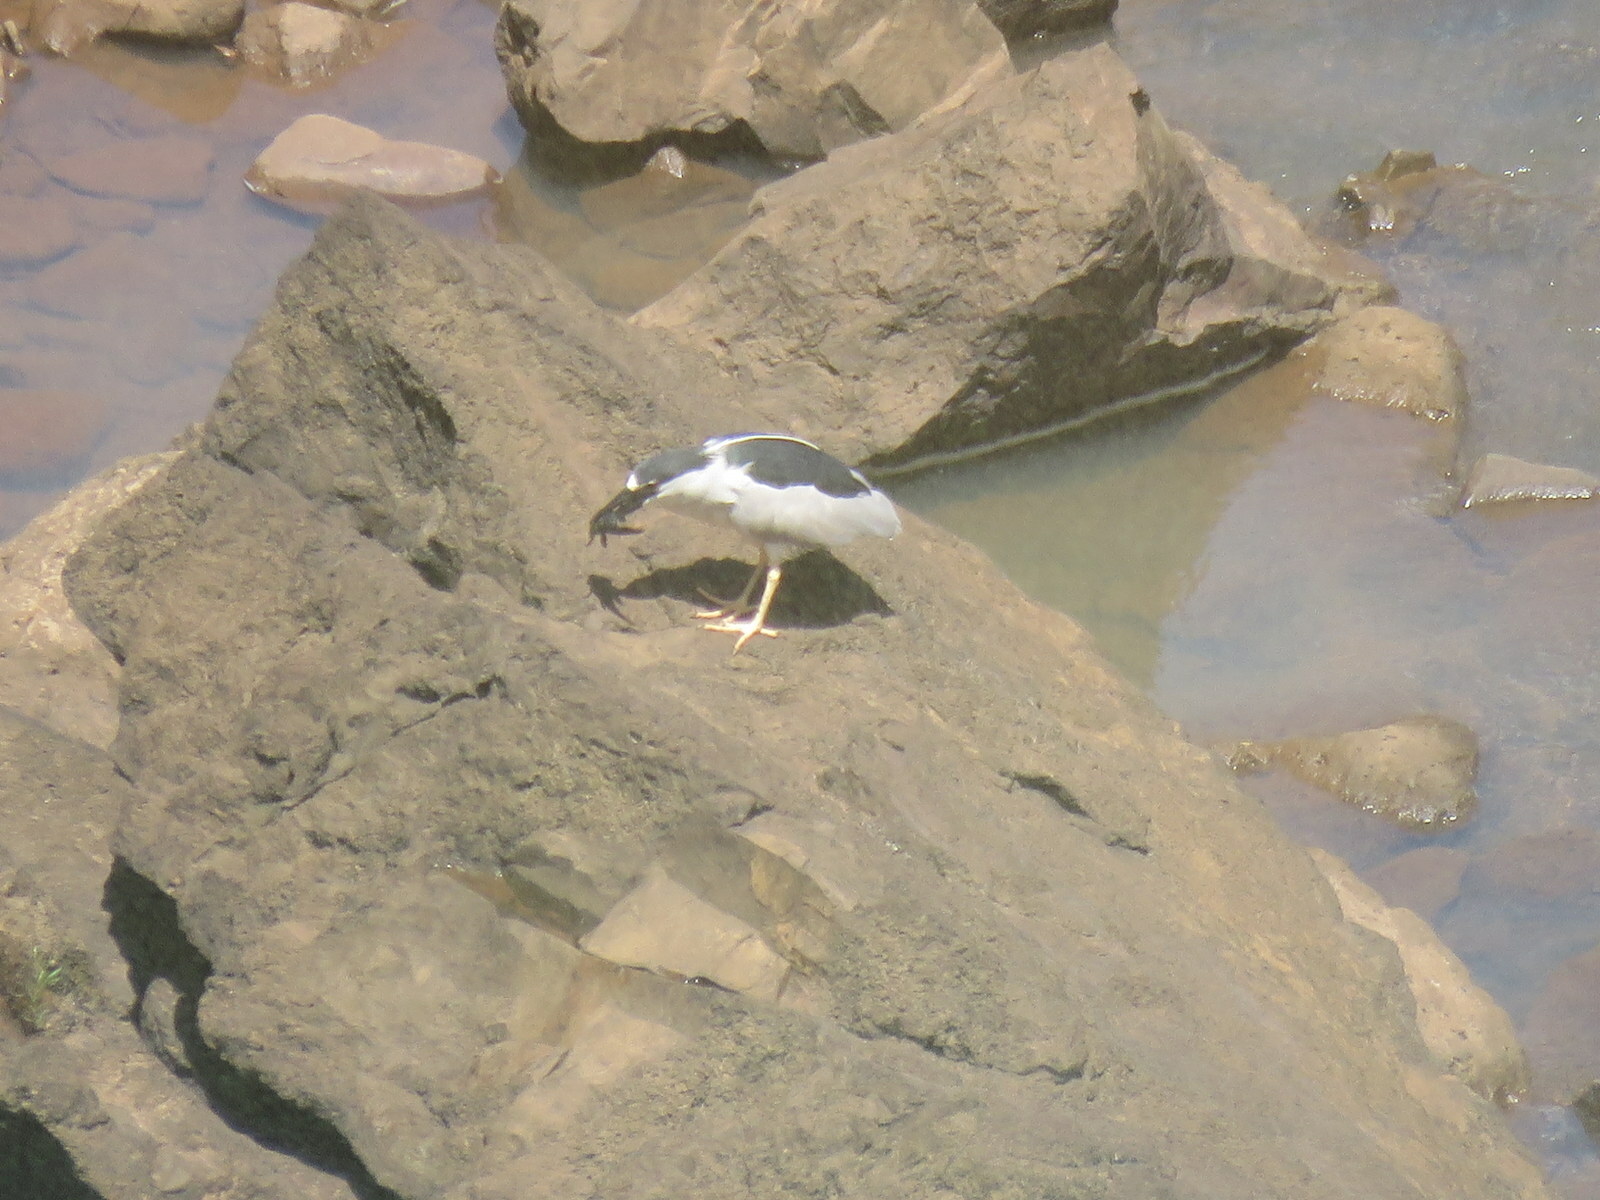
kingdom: Animalia
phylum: Chordata
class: Aves
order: Pelecaniformes
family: Ardeidae
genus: Nycticorax
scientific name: Nycticorax nycticorax
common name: Black-crowned night heron
